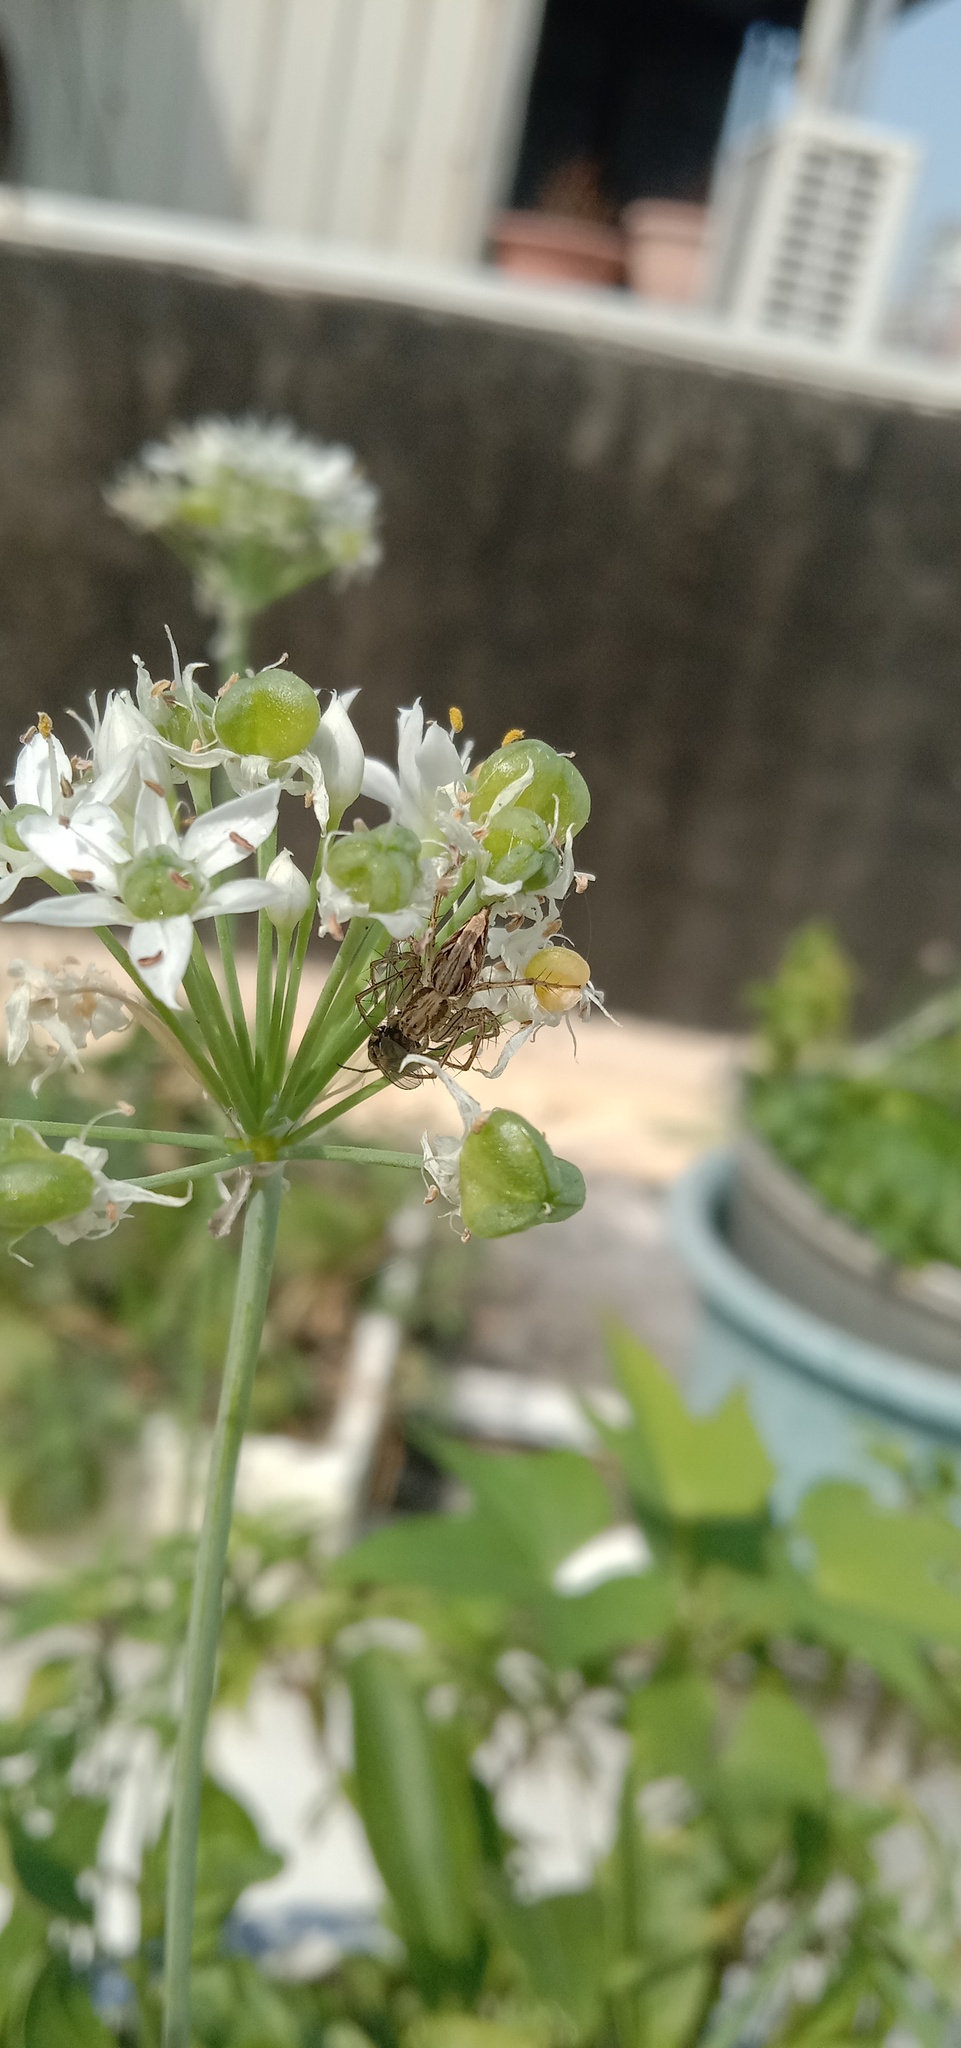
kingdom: Animalia
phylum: Arthropoda
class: Arachnida
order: Araneae
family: Oxyopidae
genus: Oxyopes
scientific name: Oxyopes sertatus
